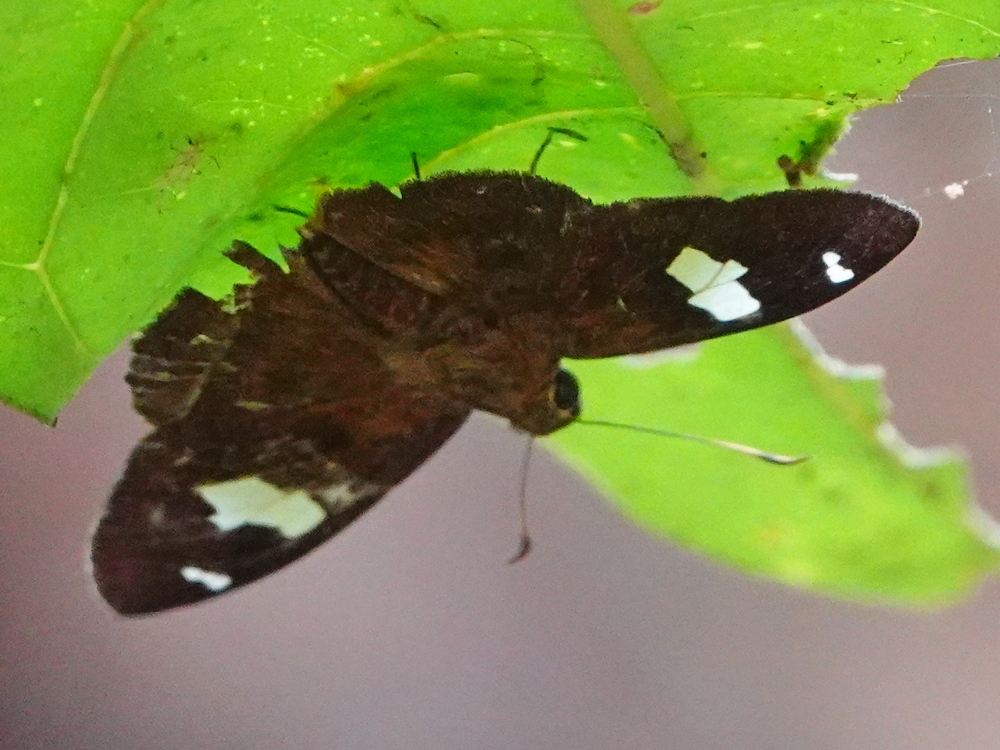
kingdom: Animalia
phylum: Arthropoda
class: Insecta
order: Lepidoptera
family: Hesperiidae
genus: Celaenorrhinus
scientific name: Celaenorrhinus putra
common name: Restricted spotted flat
